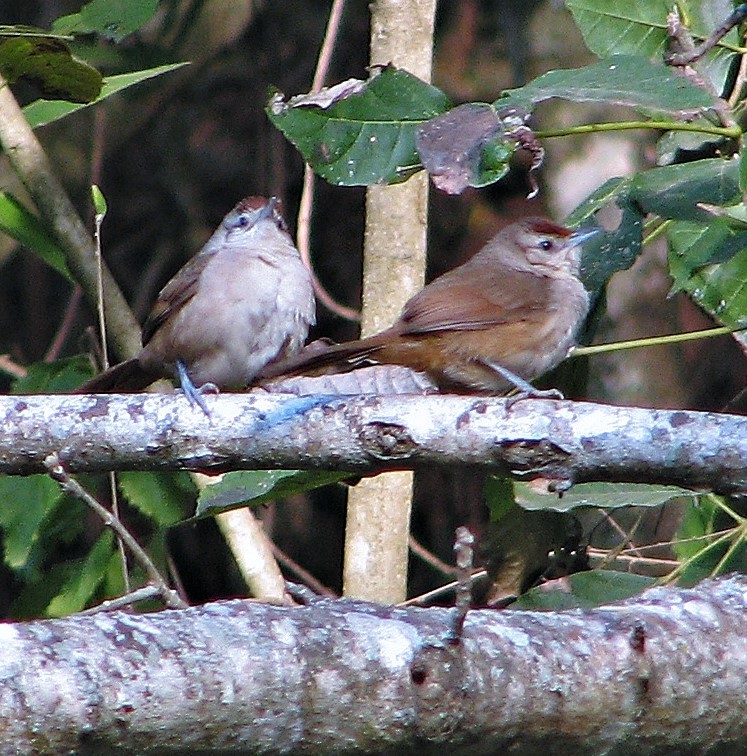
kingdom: Animalia
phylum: Chordata
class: Aves
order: Passeriformes
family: Furnariidae
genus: Phacellodomus
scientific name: Phacellodomus rufifrons
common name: Rufous-fronted thornbird
